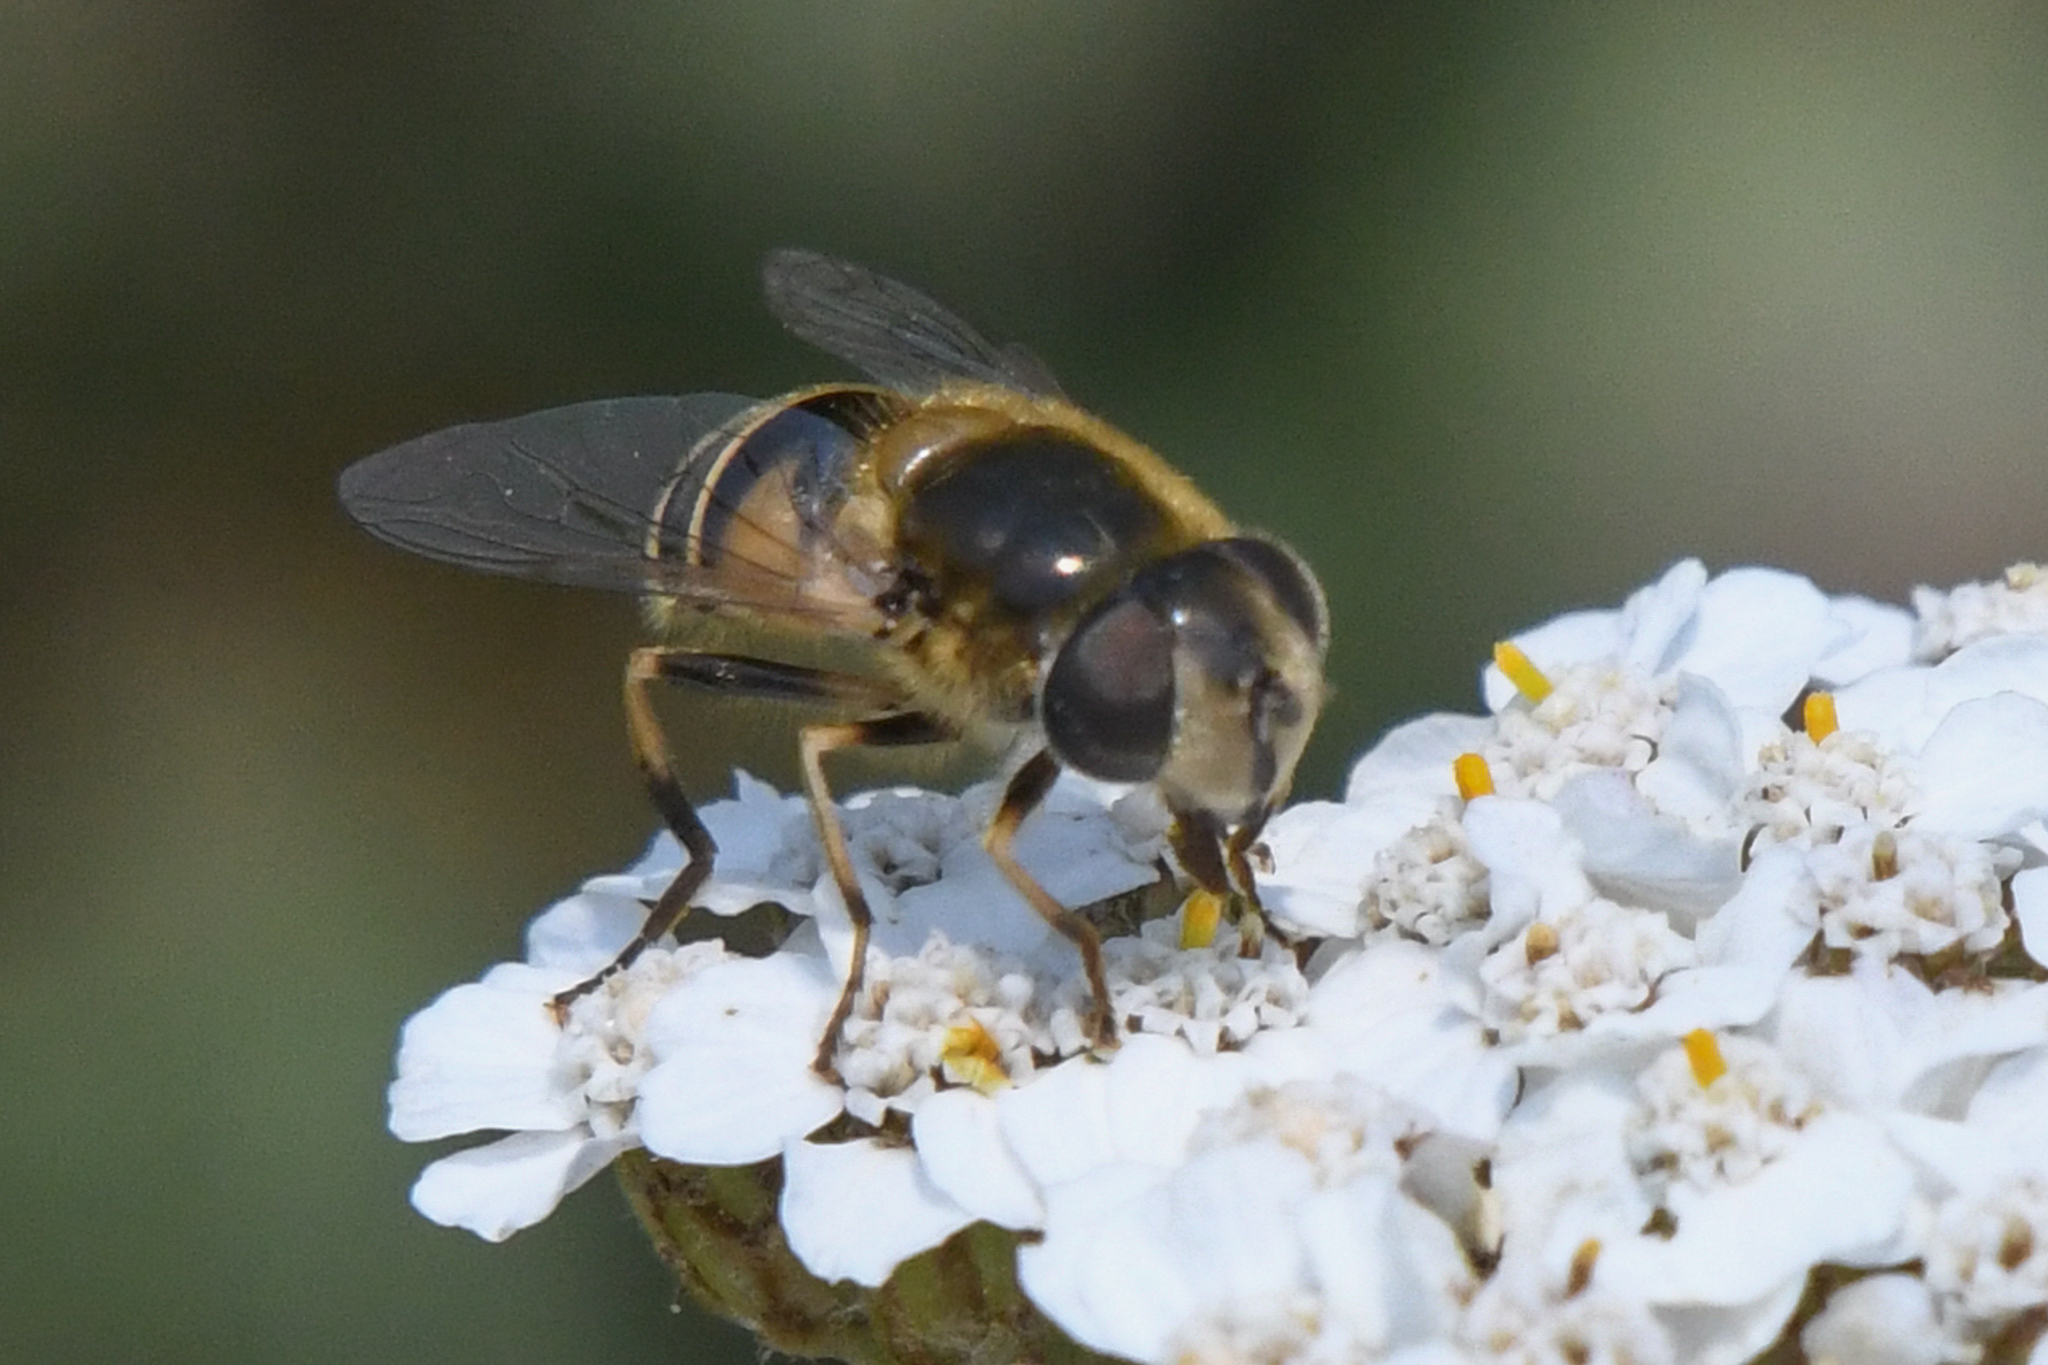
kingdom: Animalia
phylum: Arthropoda
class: Insecta
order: Diptera
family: Syrphidae
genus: Eristalis
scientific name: Eristalis nemorum
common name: Orange-spined drone fly
